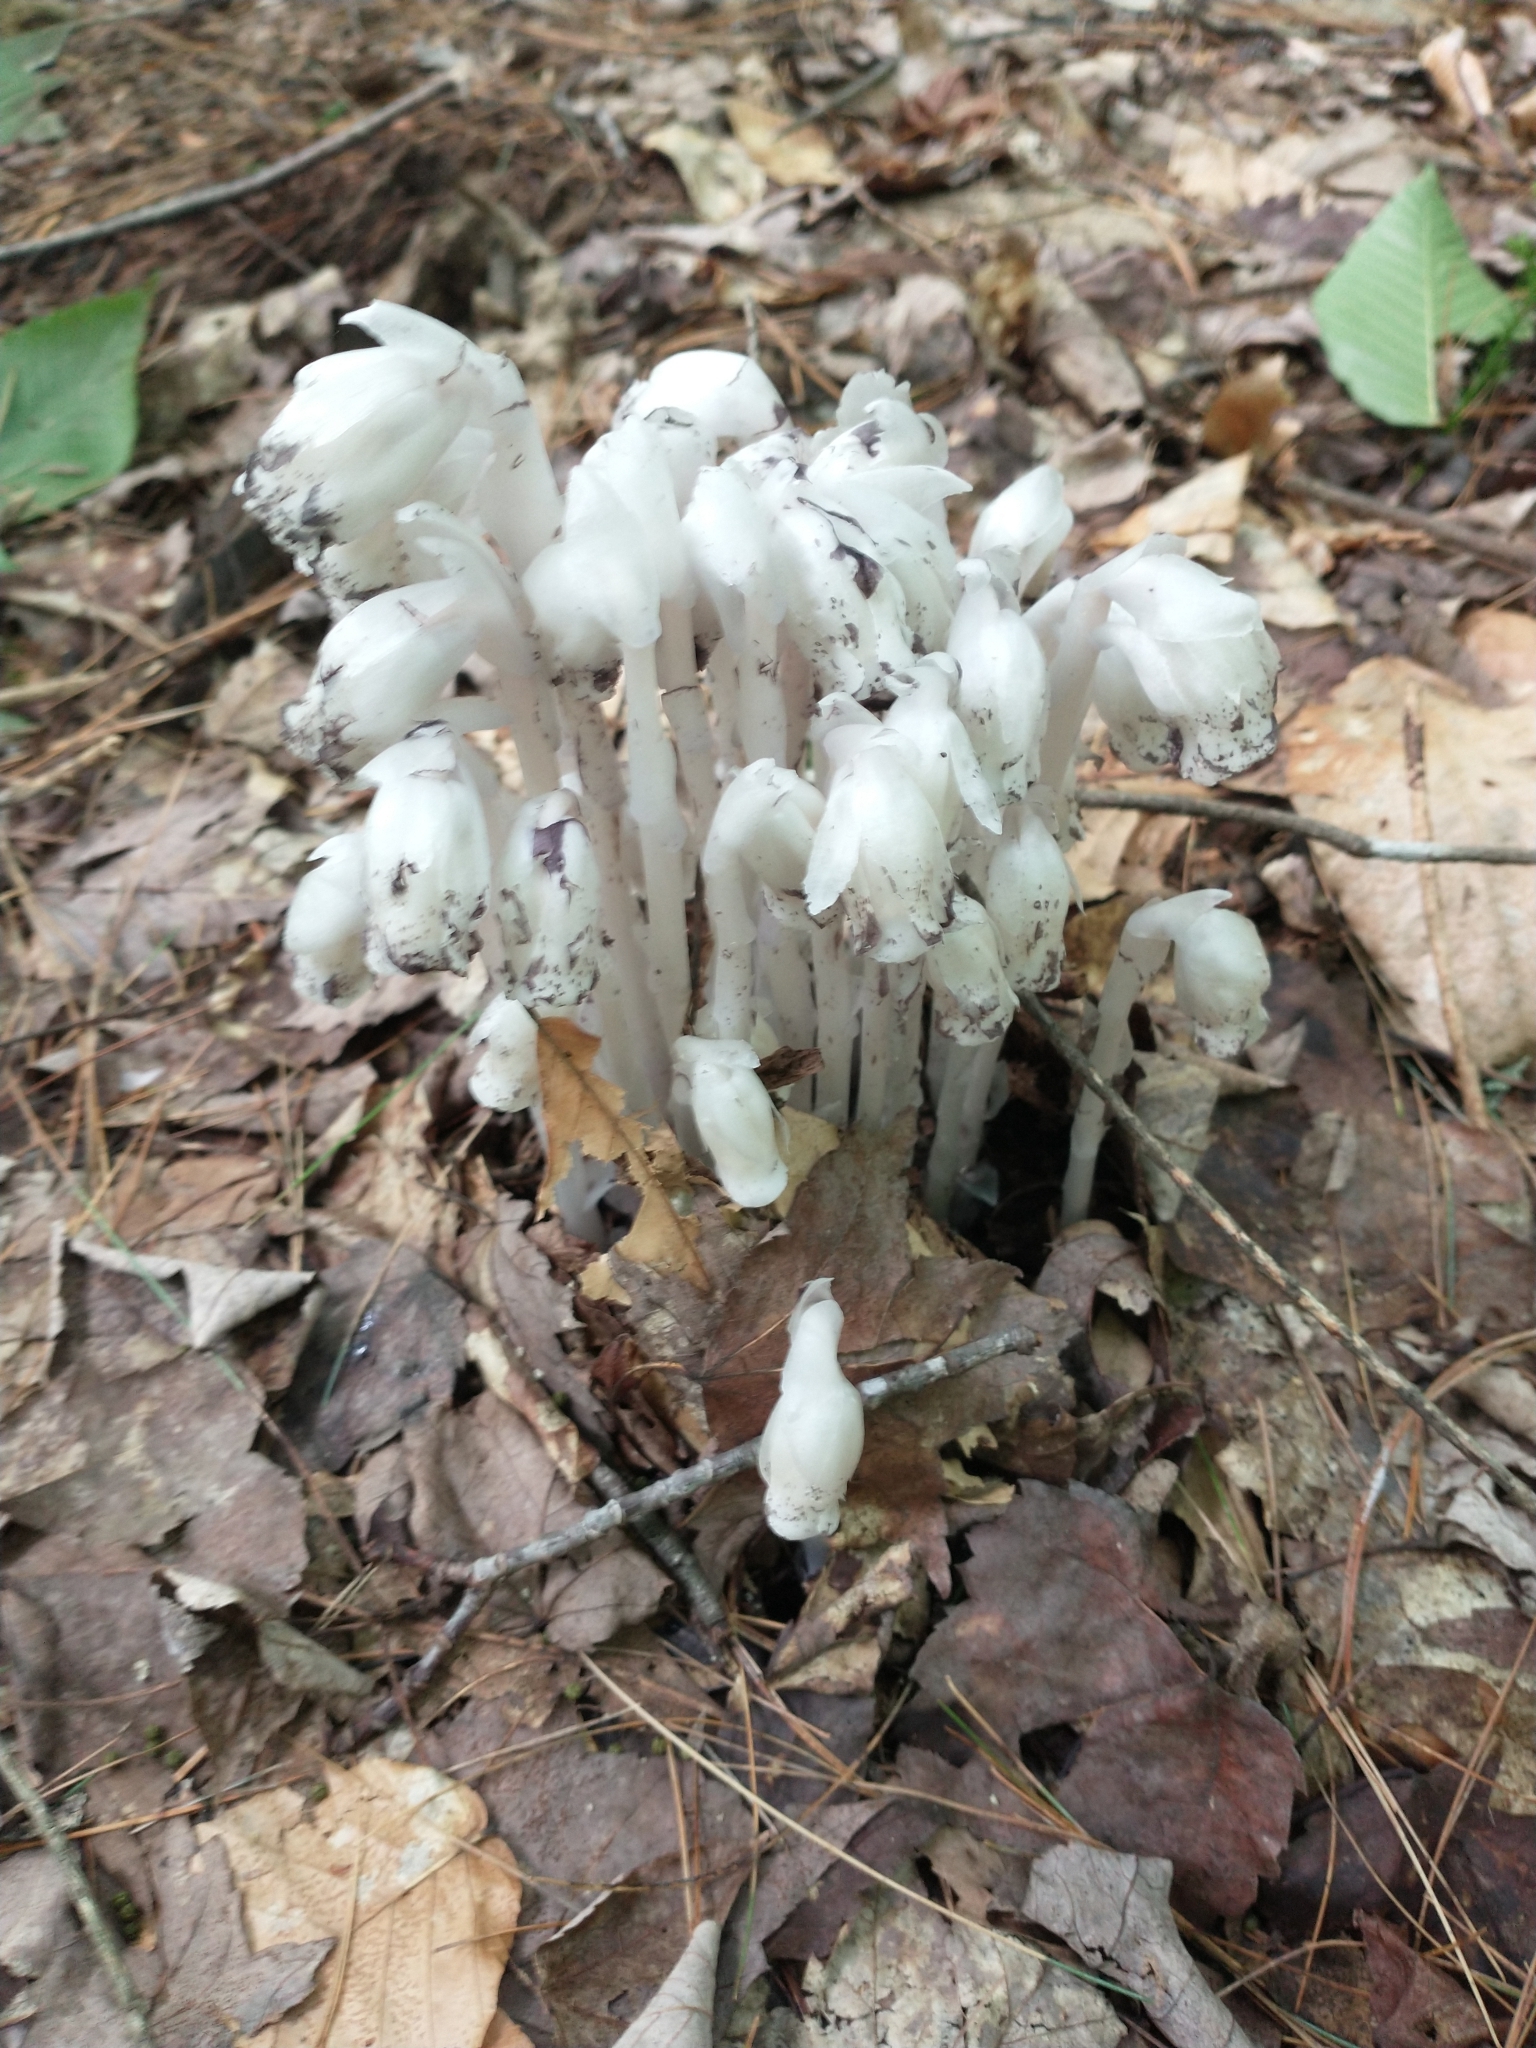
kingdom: Plantae
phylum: Tracheophyta
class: Magnoliopsida
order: Ericales
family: Ericaceae
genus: Monotropa
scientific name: Monotropa uniflora
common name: Convulsion root
